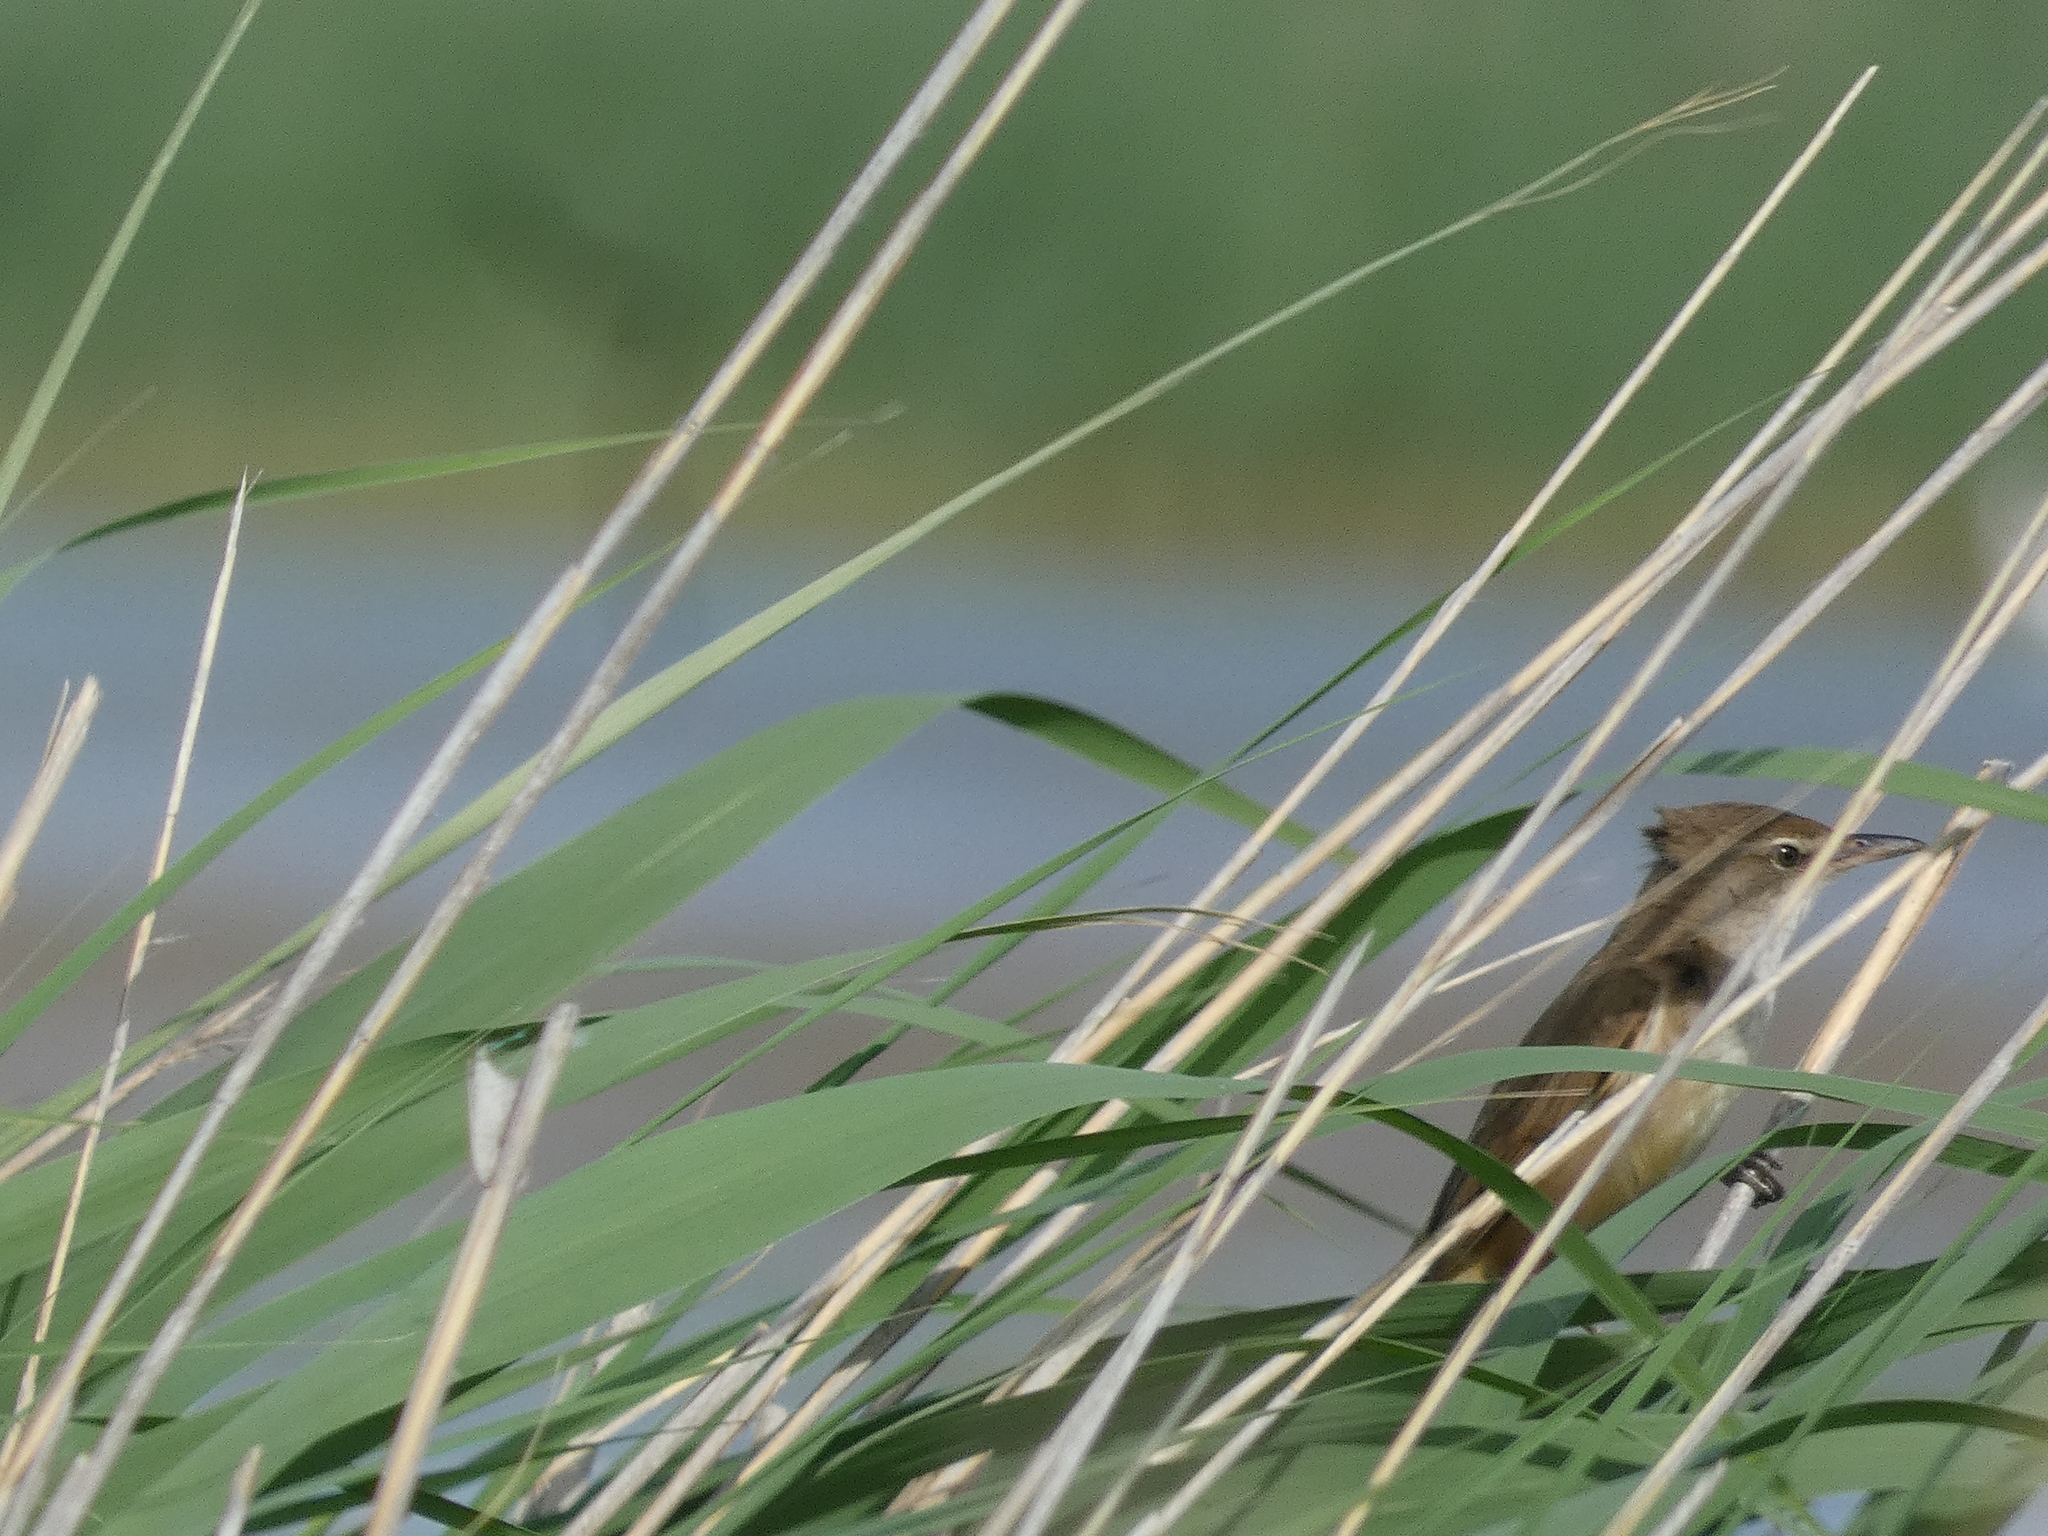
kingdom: Animalia
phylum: Chordata
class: Aves
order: Passeriformes
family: Acrocephalidae
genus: Acrocephalus
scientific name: Acrocephalus arundinaceus
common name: Great reed warbler
